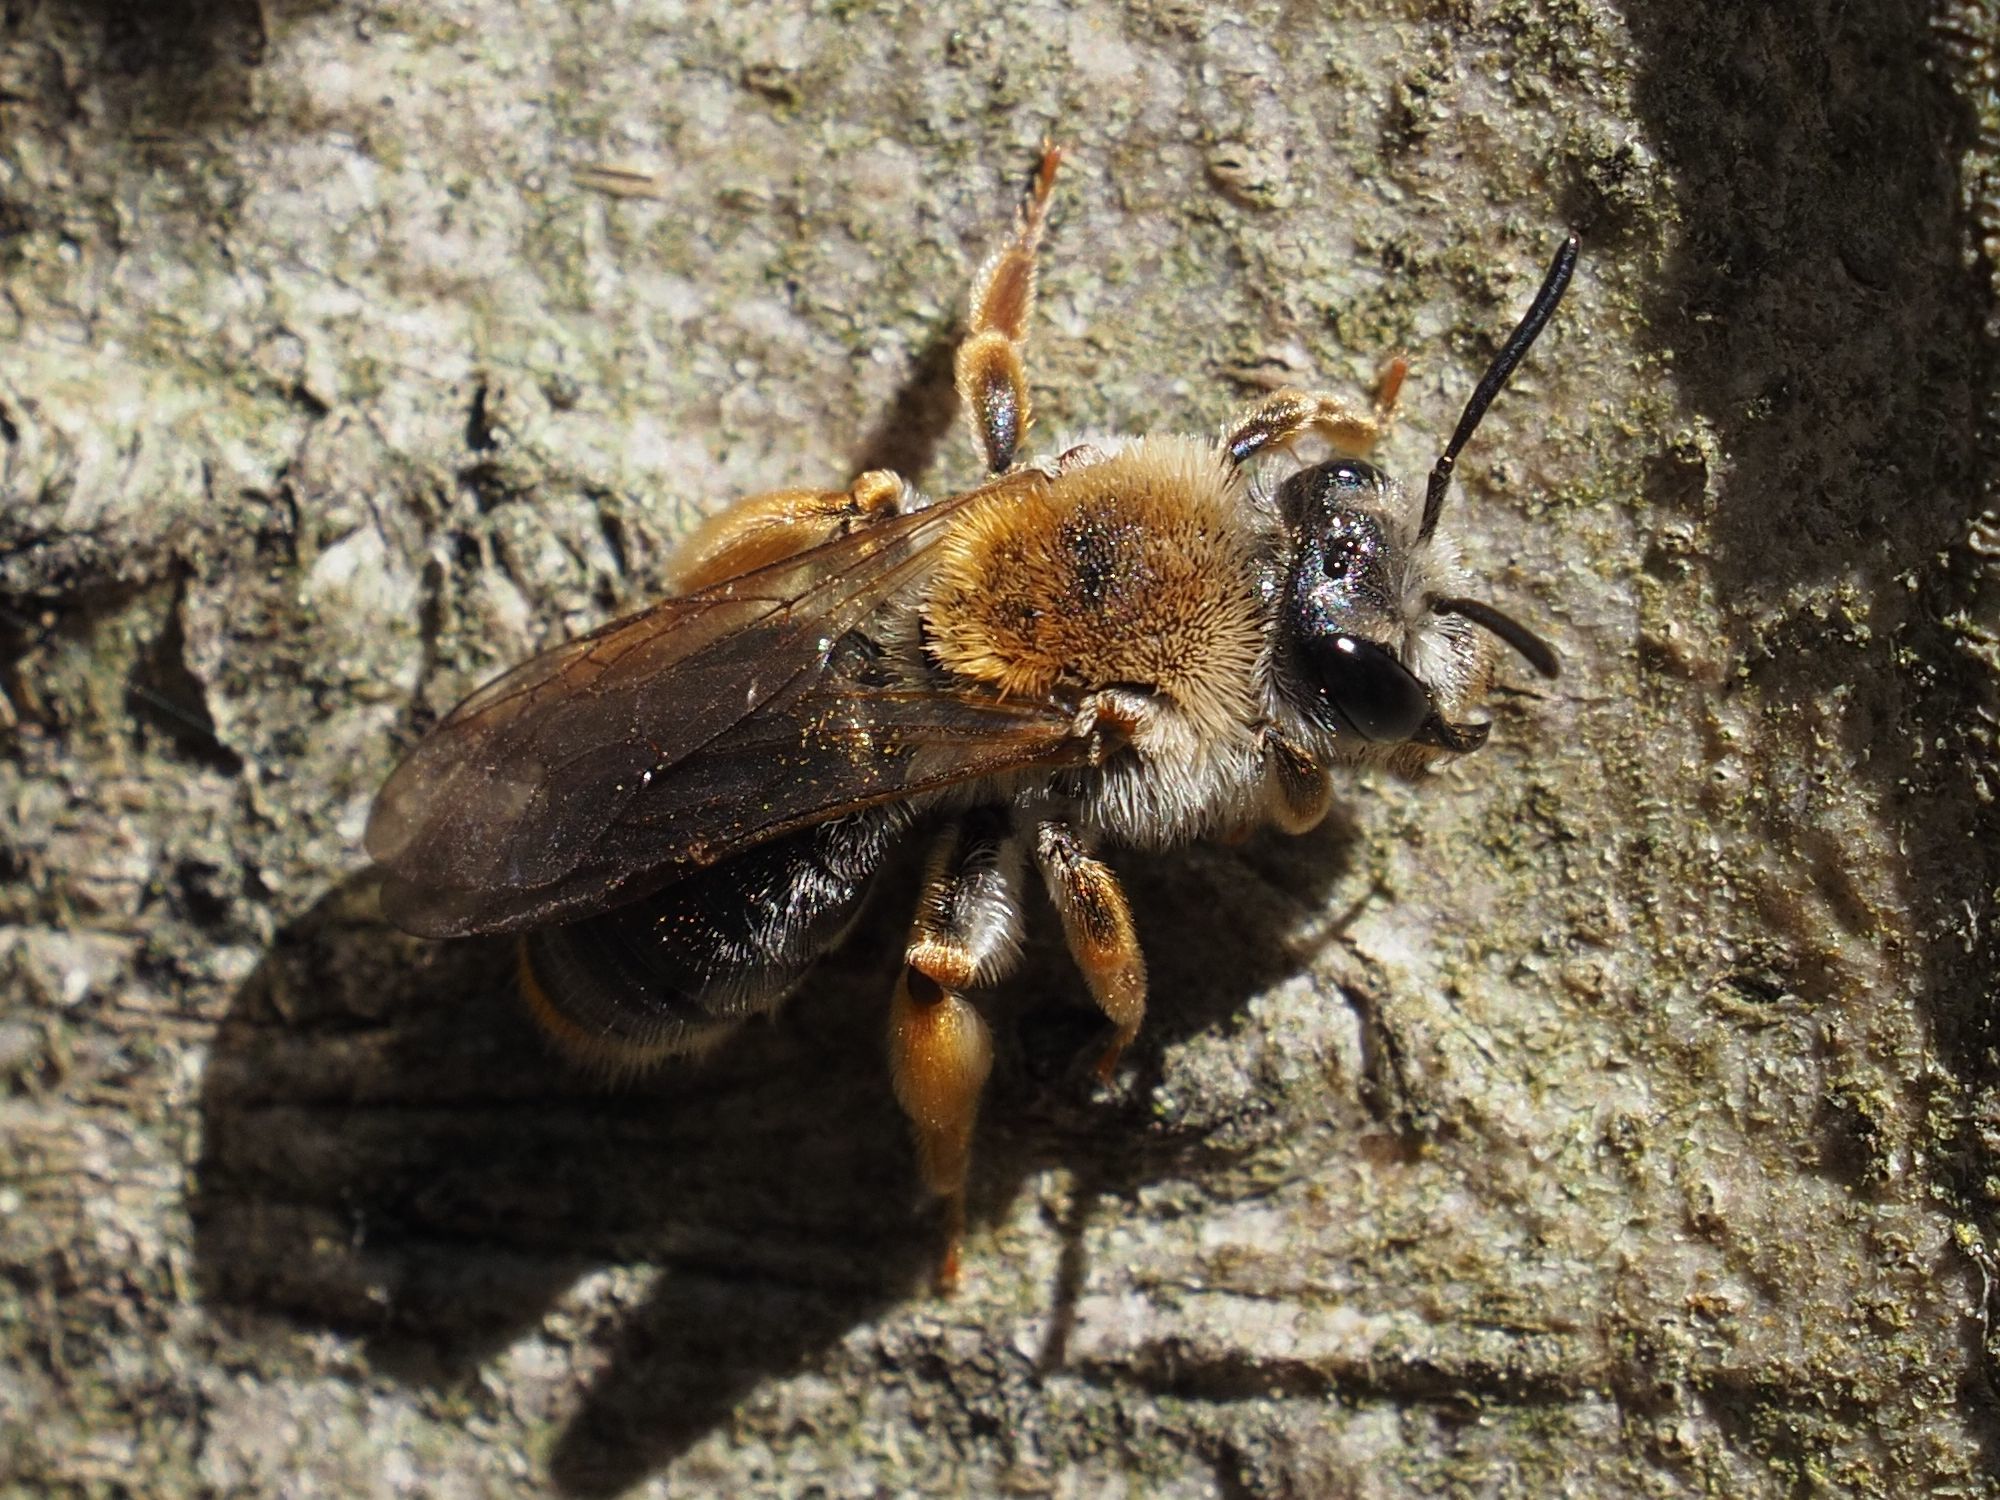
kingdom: Animalia
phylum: Arthropoda
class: Insecta
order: Hymenoptera
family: Andrenidae
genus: Andrena
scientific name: Andrena haemorrhoa
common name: Early mining bee
